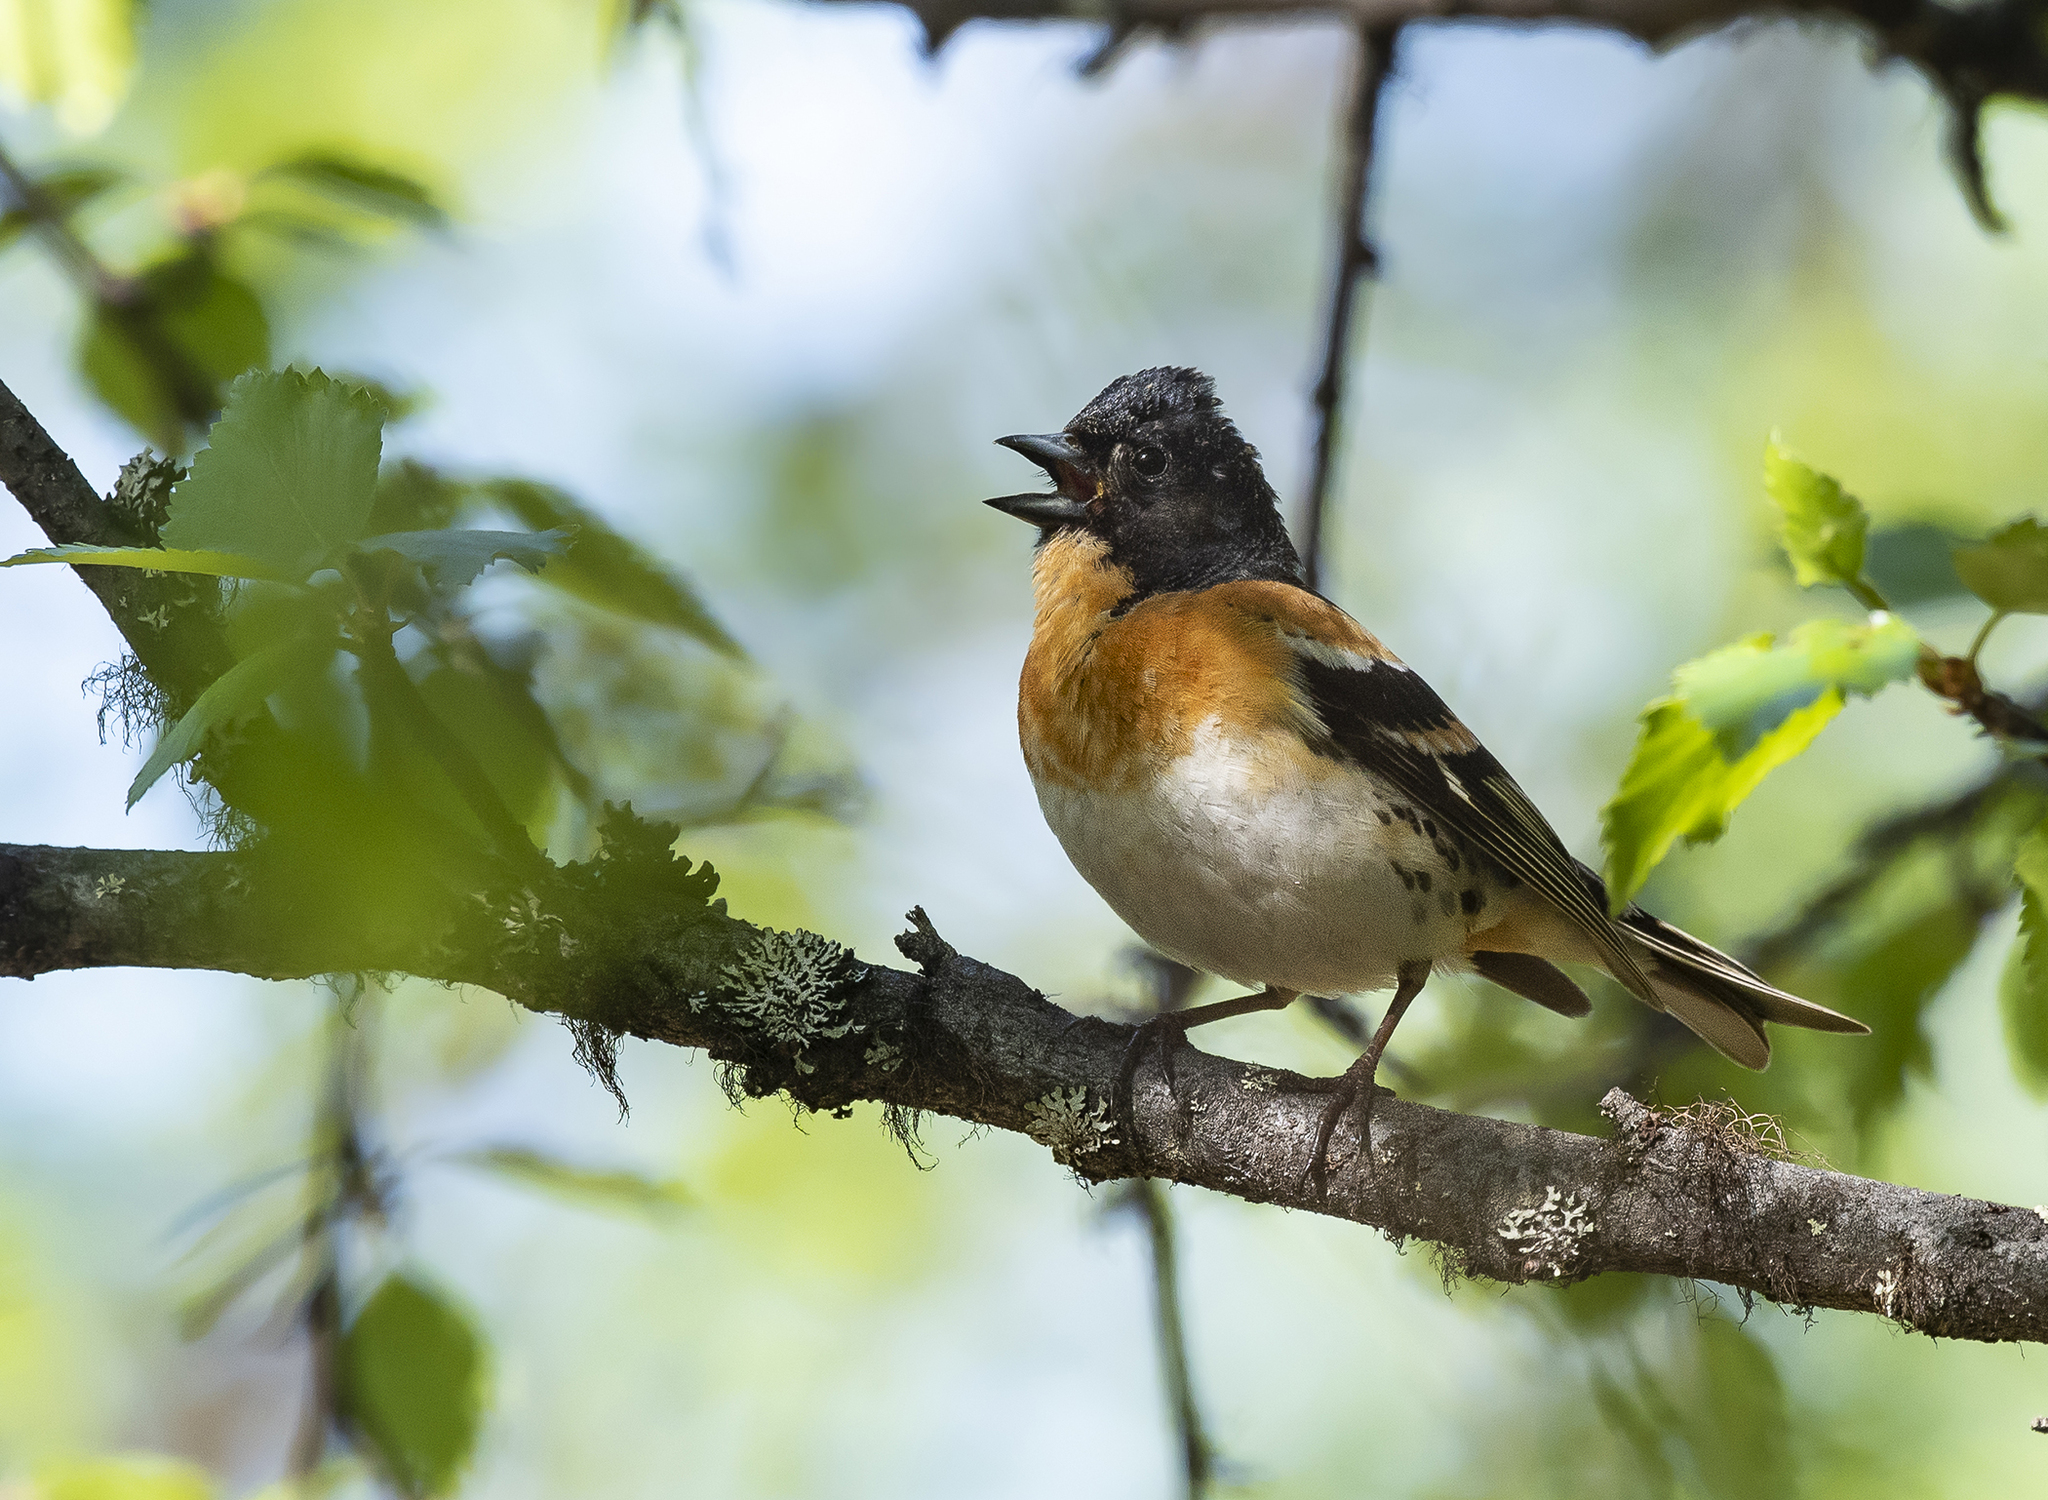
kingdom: Animalia
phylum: Chordata
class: Aves
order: Passeriformes
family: Fringillidae
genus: Fringilla
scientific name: Fringilla montifringilla
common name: Brambling
